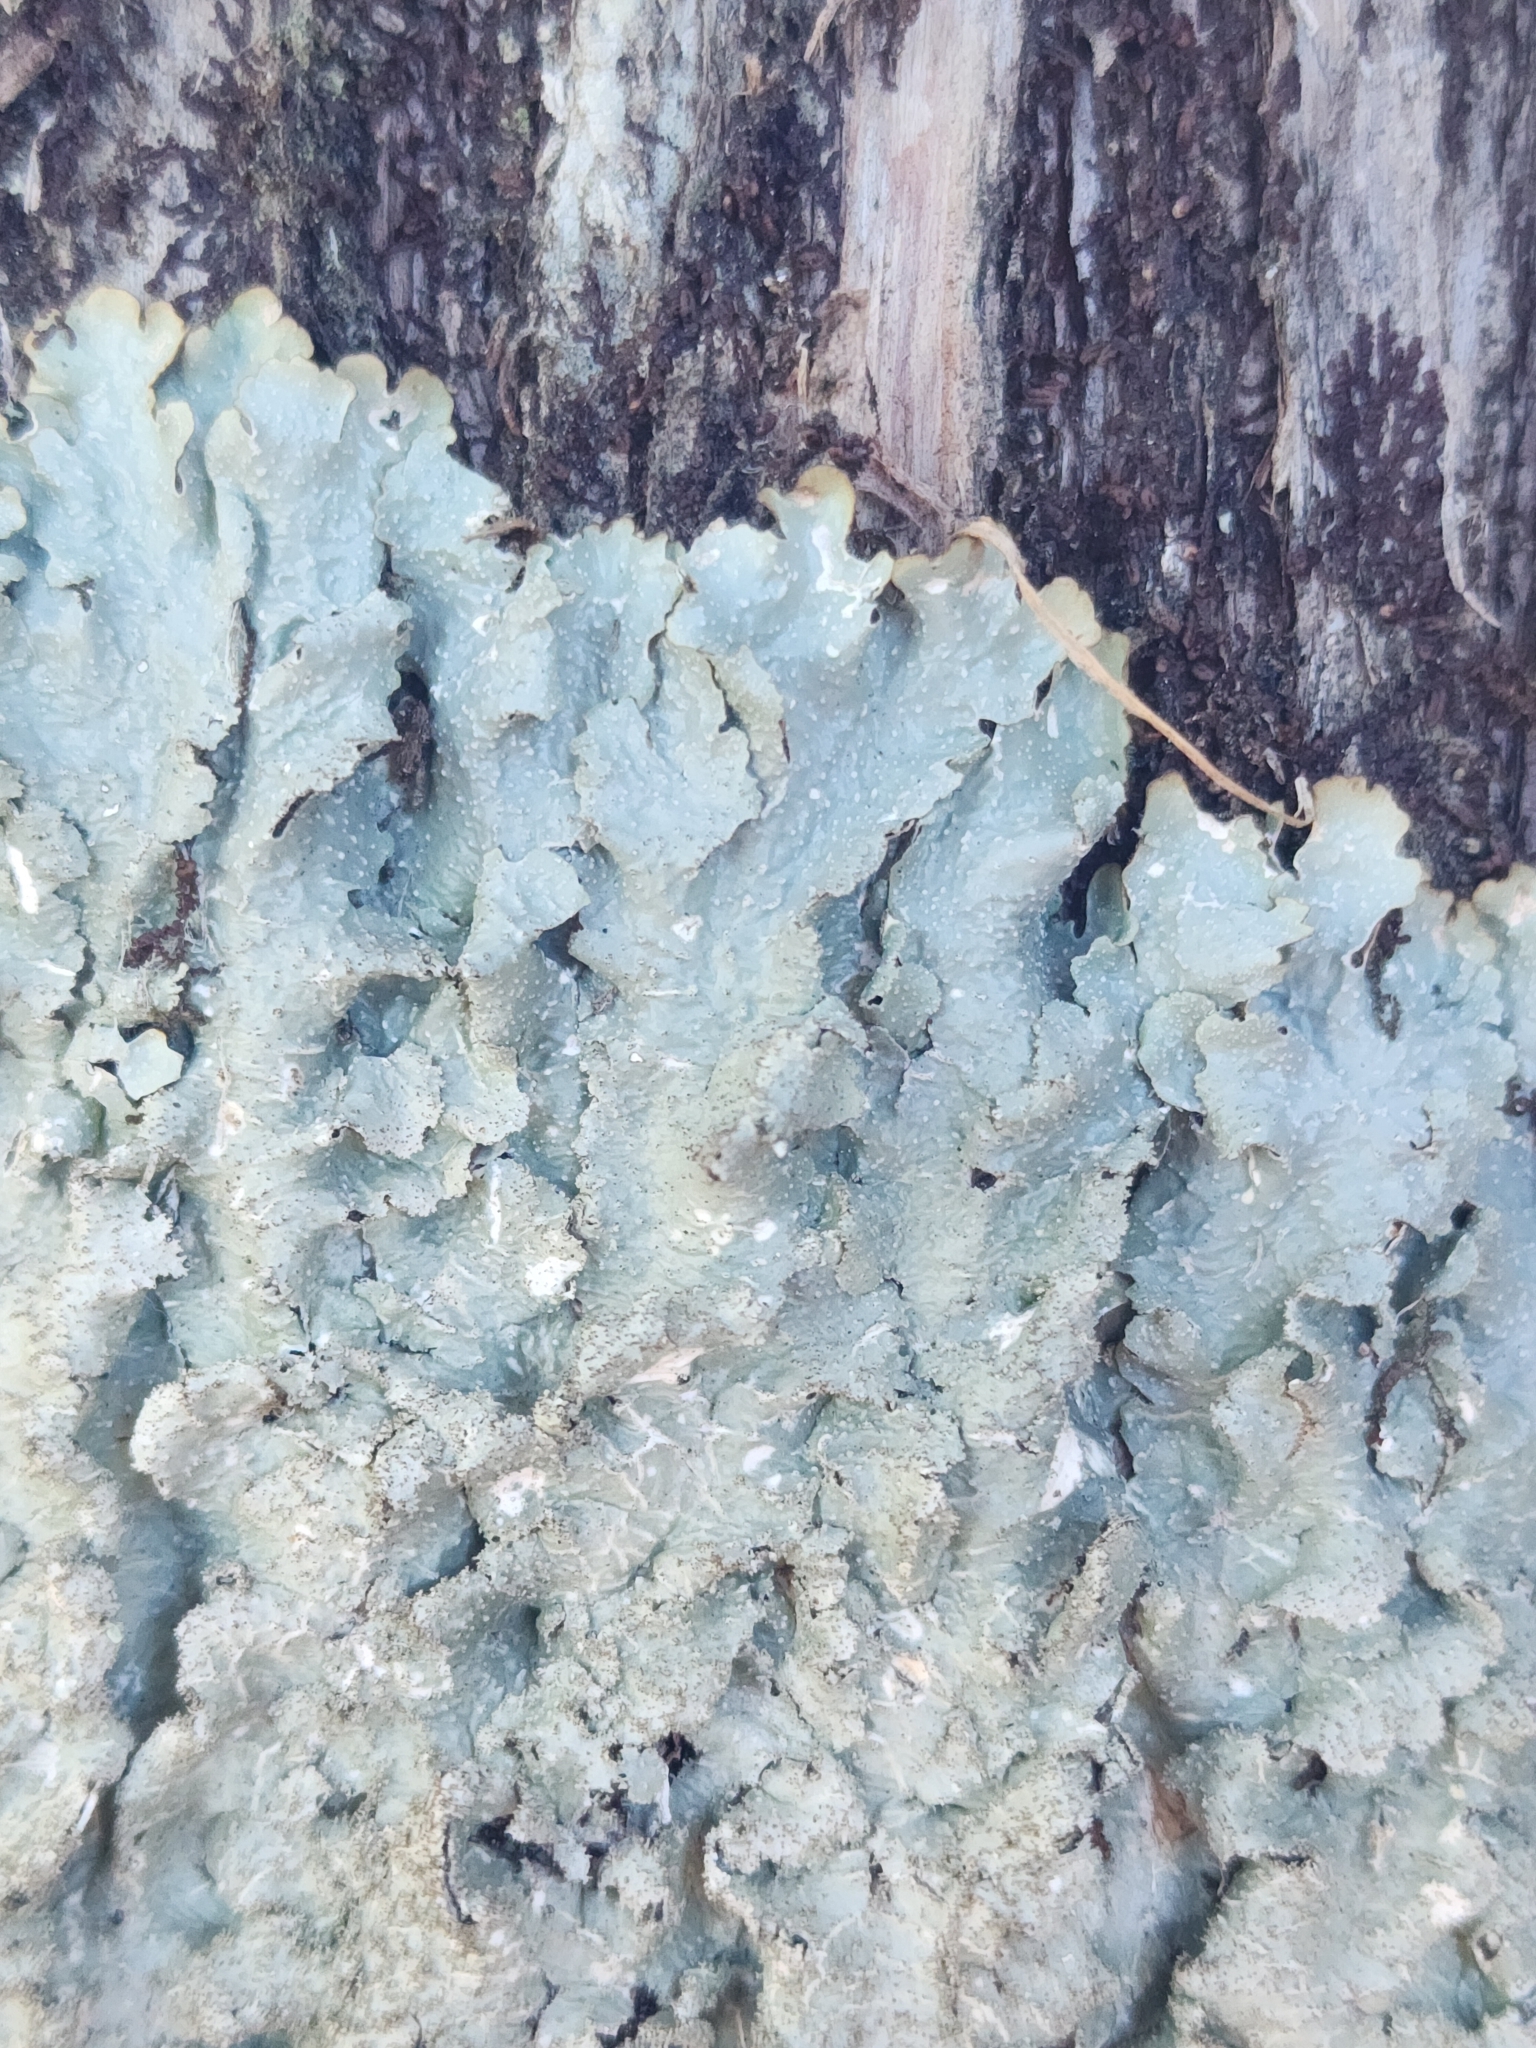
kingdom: Fungi
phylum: Ascomycota
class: Lecanoromycetes
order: Lecanorales
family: Parmeliaceae
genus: Punctelia
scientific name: Punctelia rudecta
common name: Rough speckled shield lichen
